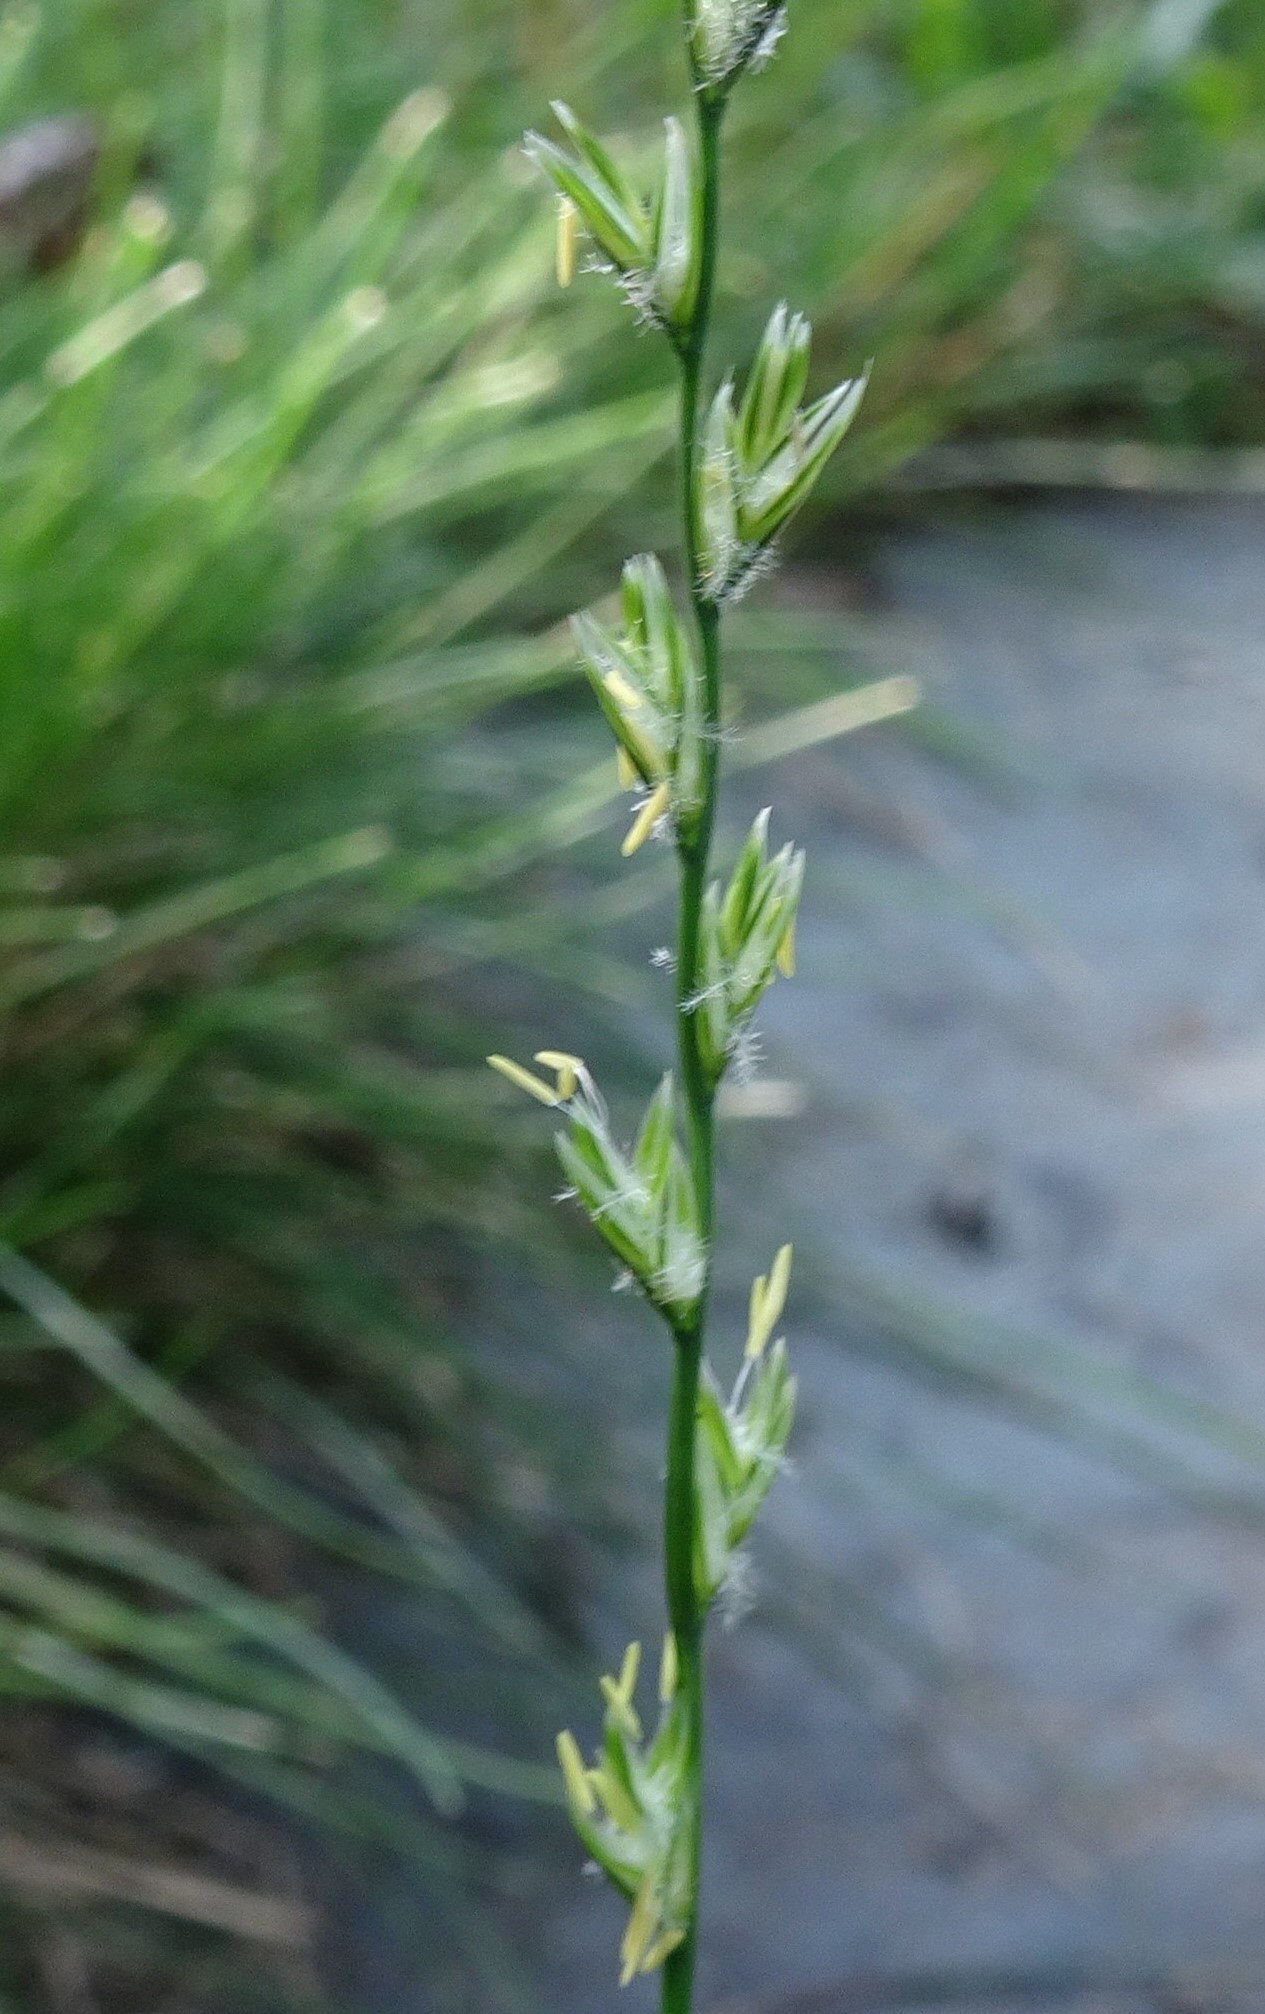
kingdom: Plantae
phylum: Tracheophyta
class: Liliopsida
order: Poales
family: Poaceae
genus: Lolium
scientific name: Lolium perenne
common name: Perennial ryegrass
